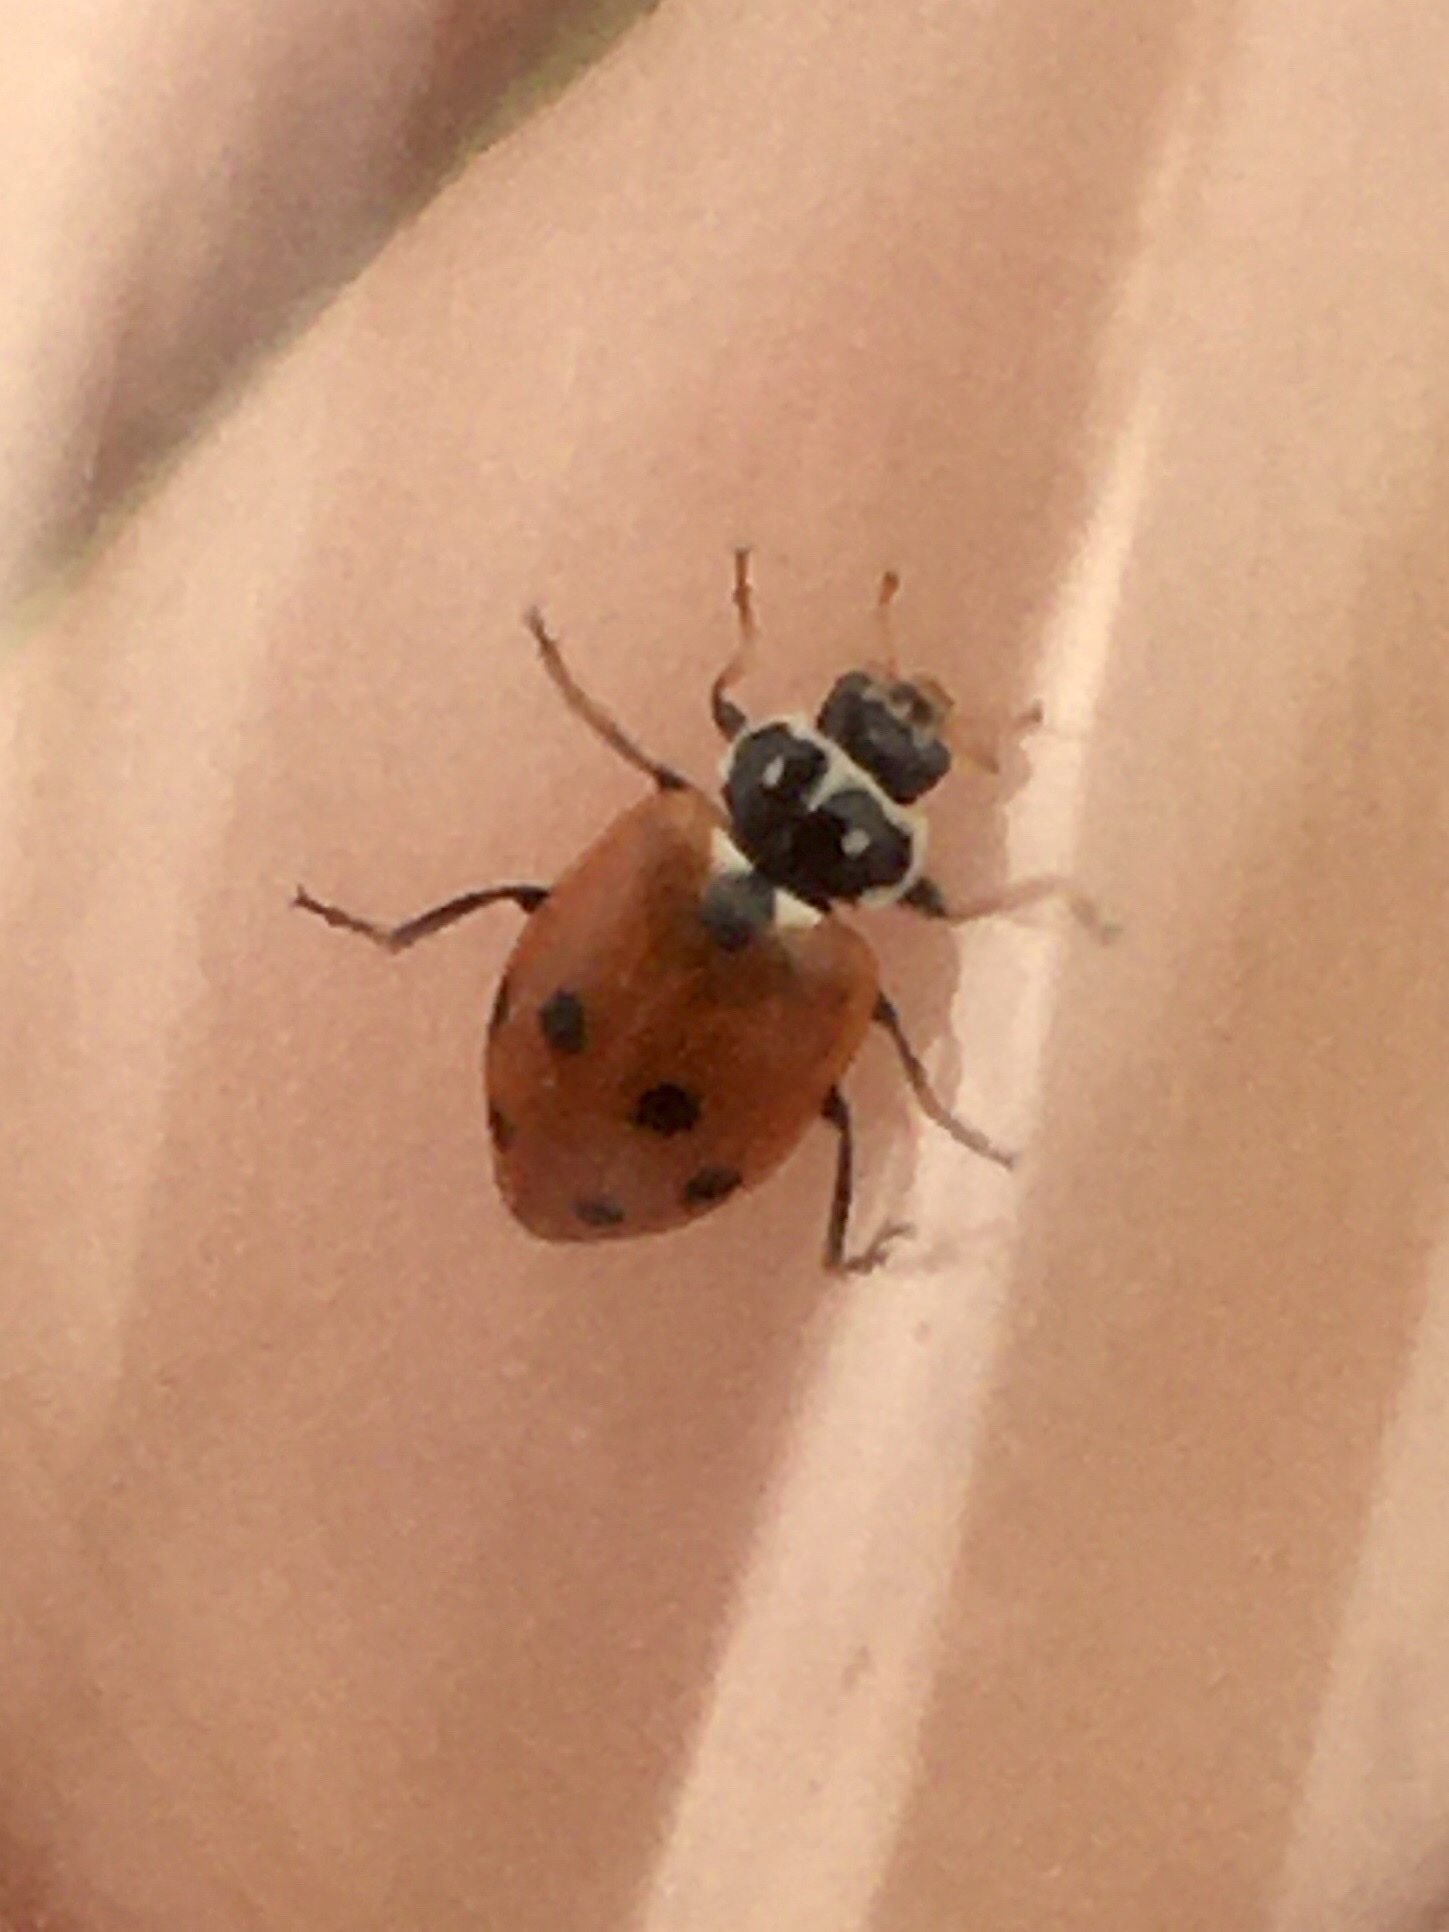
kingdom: Animalia
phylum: Arthropoda
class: Insecta
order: Coleoptera
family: Coccinellidae
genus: Hippodamia
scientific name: Hippodamia variegata
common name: Ladybird beetle
